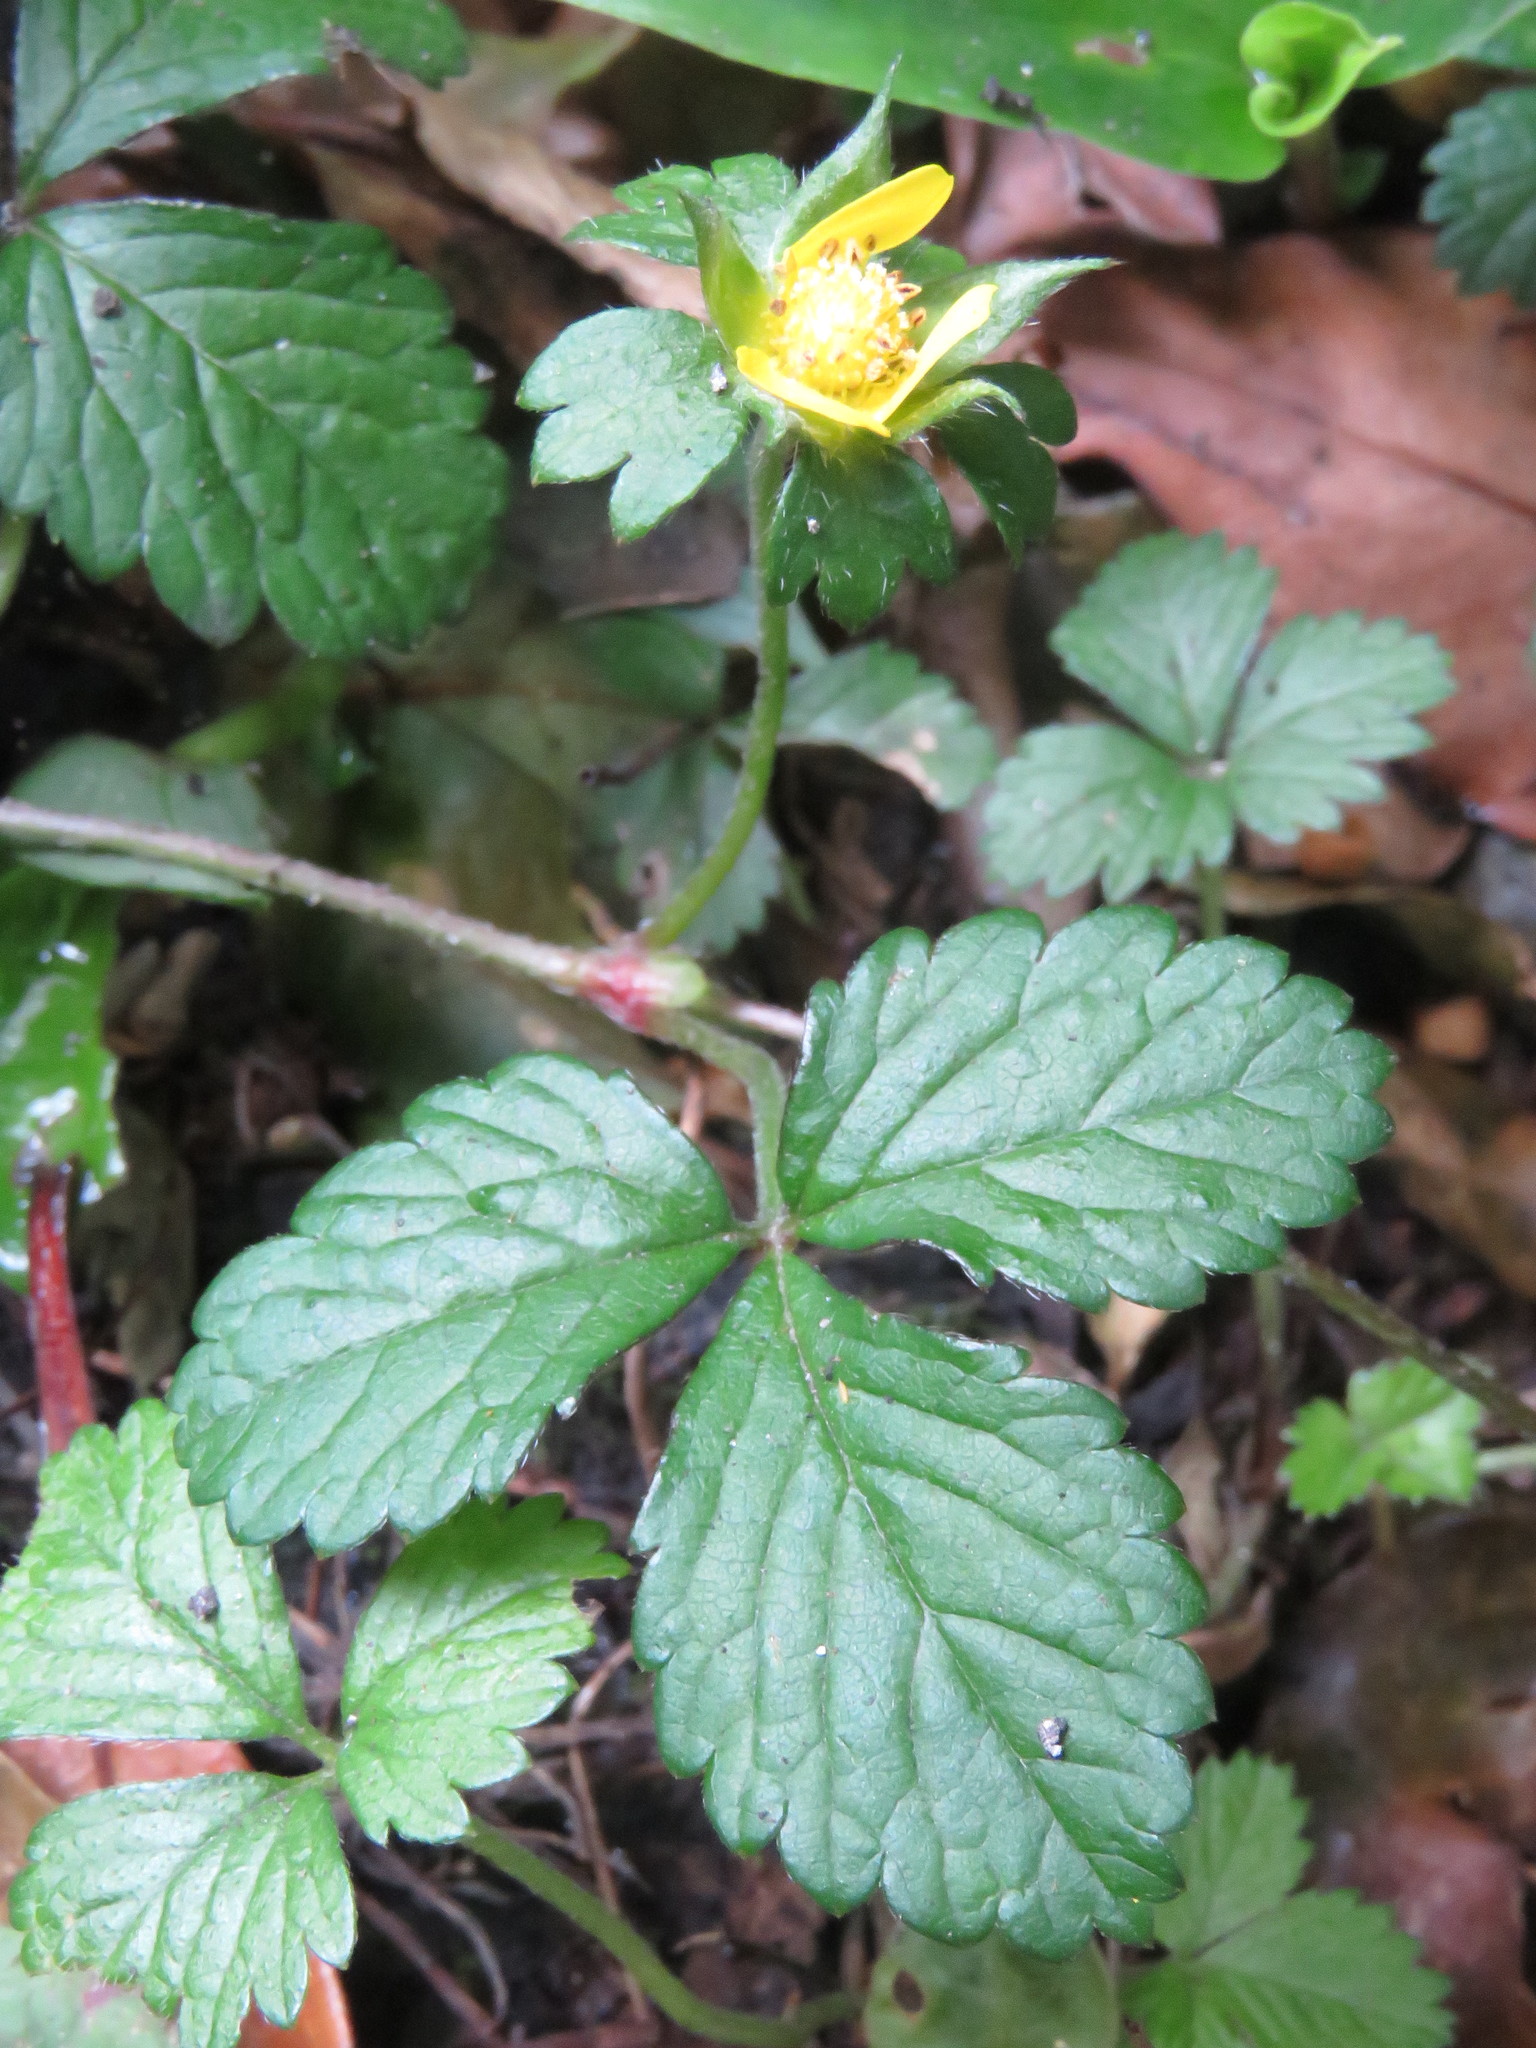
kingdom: Plantae
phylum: Tracheophyta
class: Magnoliopsida
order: Rosales
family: Rosaceae
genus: Potentilla
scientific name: Potentilla indica
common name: Yellow-flowered strawberry
